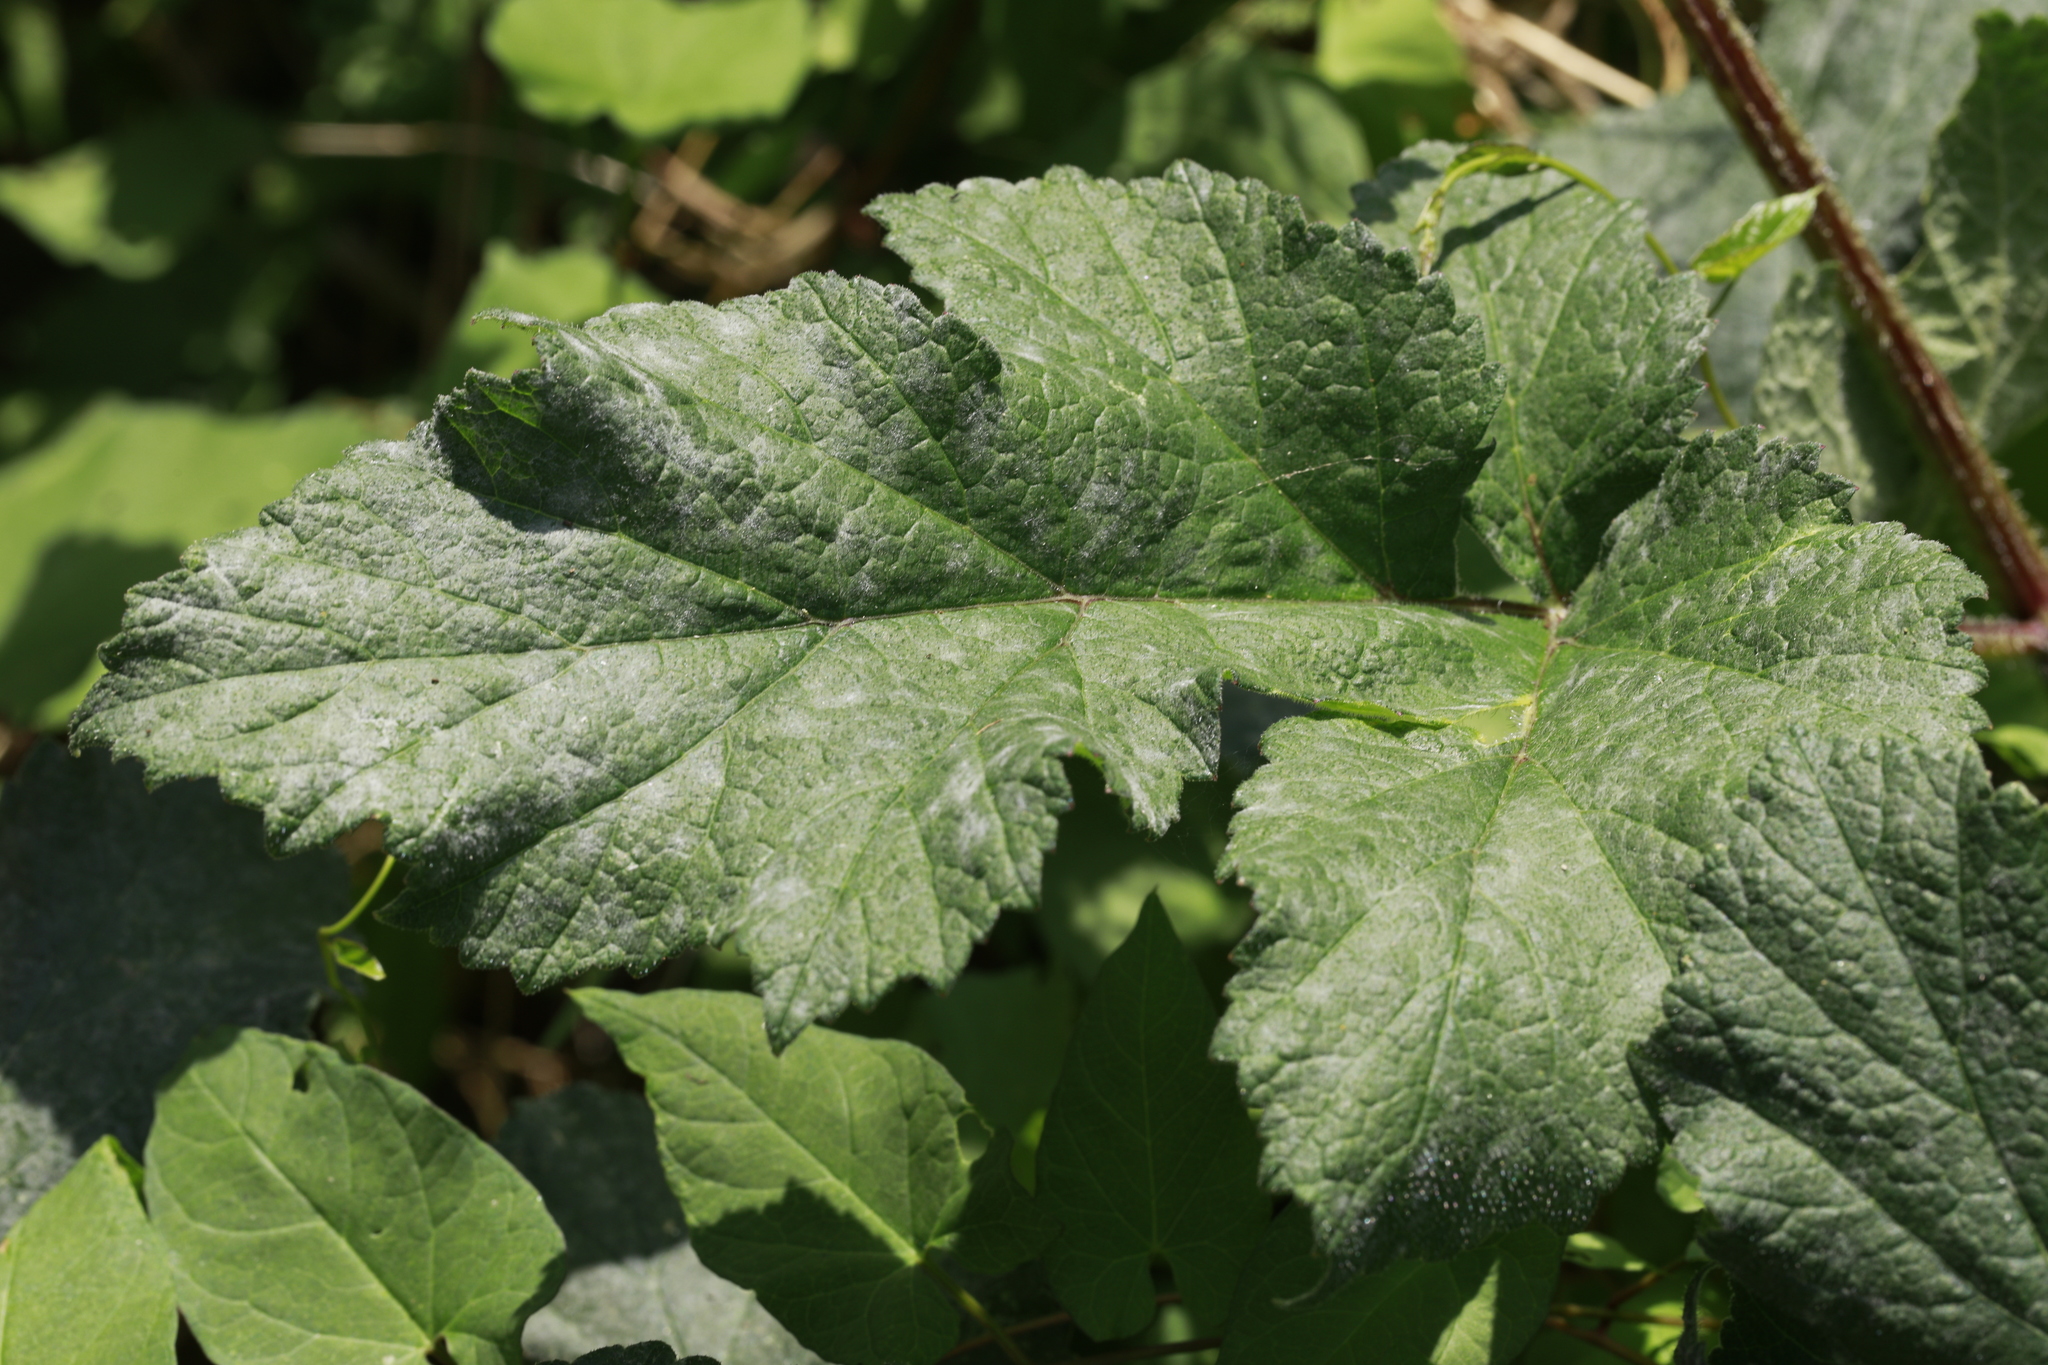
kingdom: Fungi
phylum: Ascomycota
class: Leotiomycetes
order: Helotiales
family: Erysiphaceae
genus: Erysiphe
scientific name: Erysiphe heraclei
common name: Umbellifer mildew
